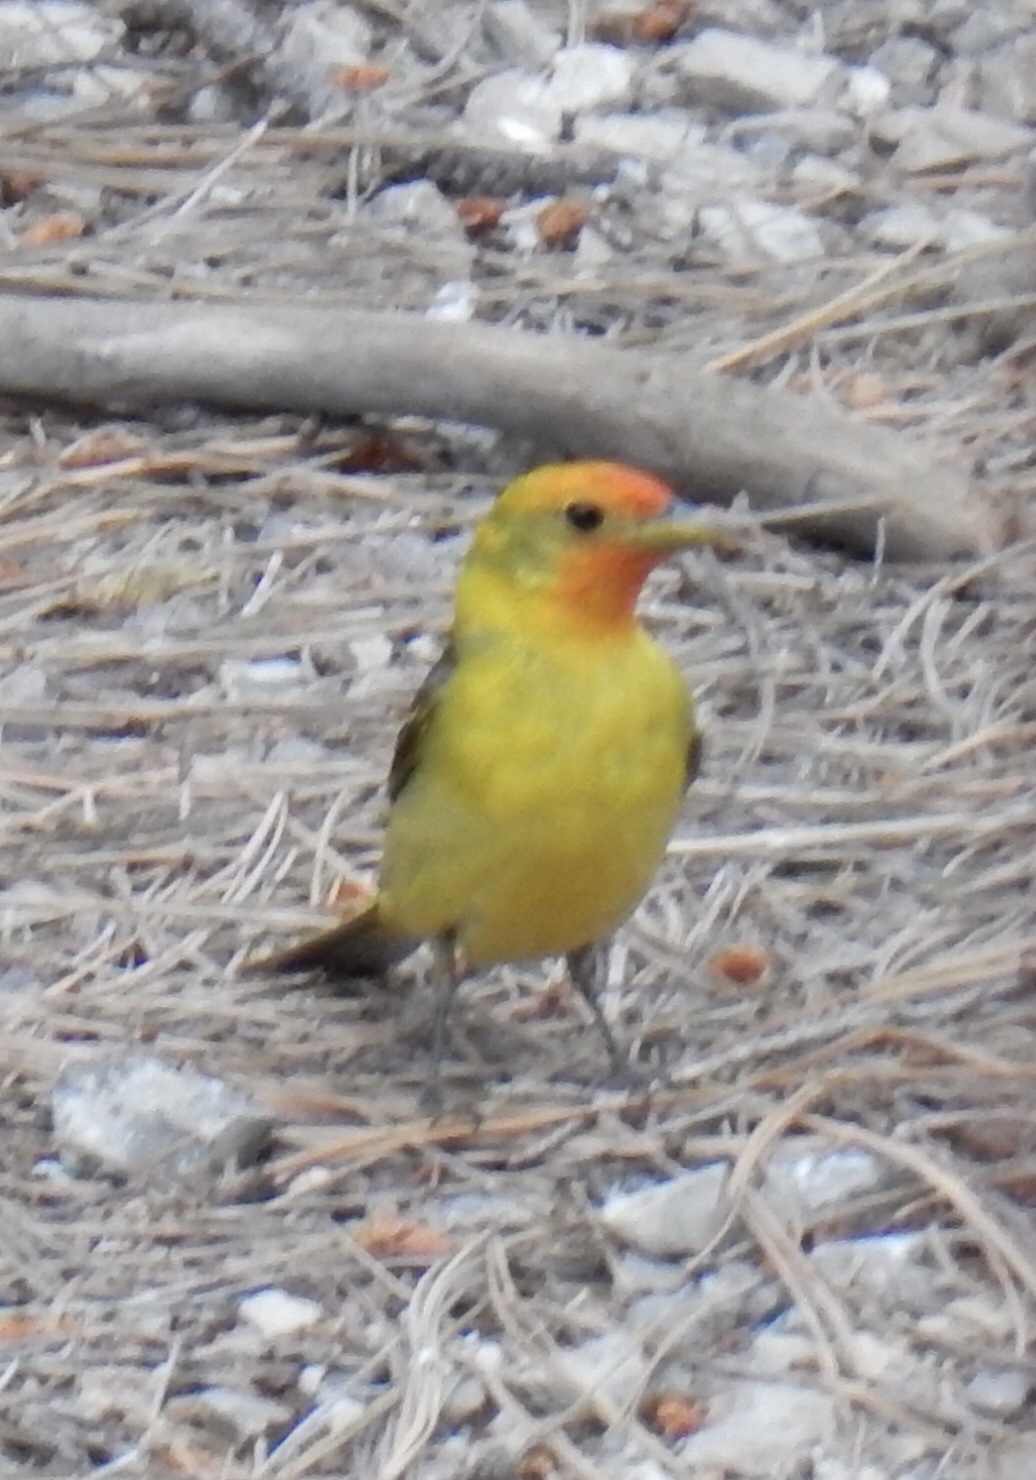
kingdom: Animalia
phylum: Chordata
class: Aves
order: Passeriformes
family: Cardinalidae
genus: Piranga
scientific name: Piranga ludoviciana
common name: Western tanager
